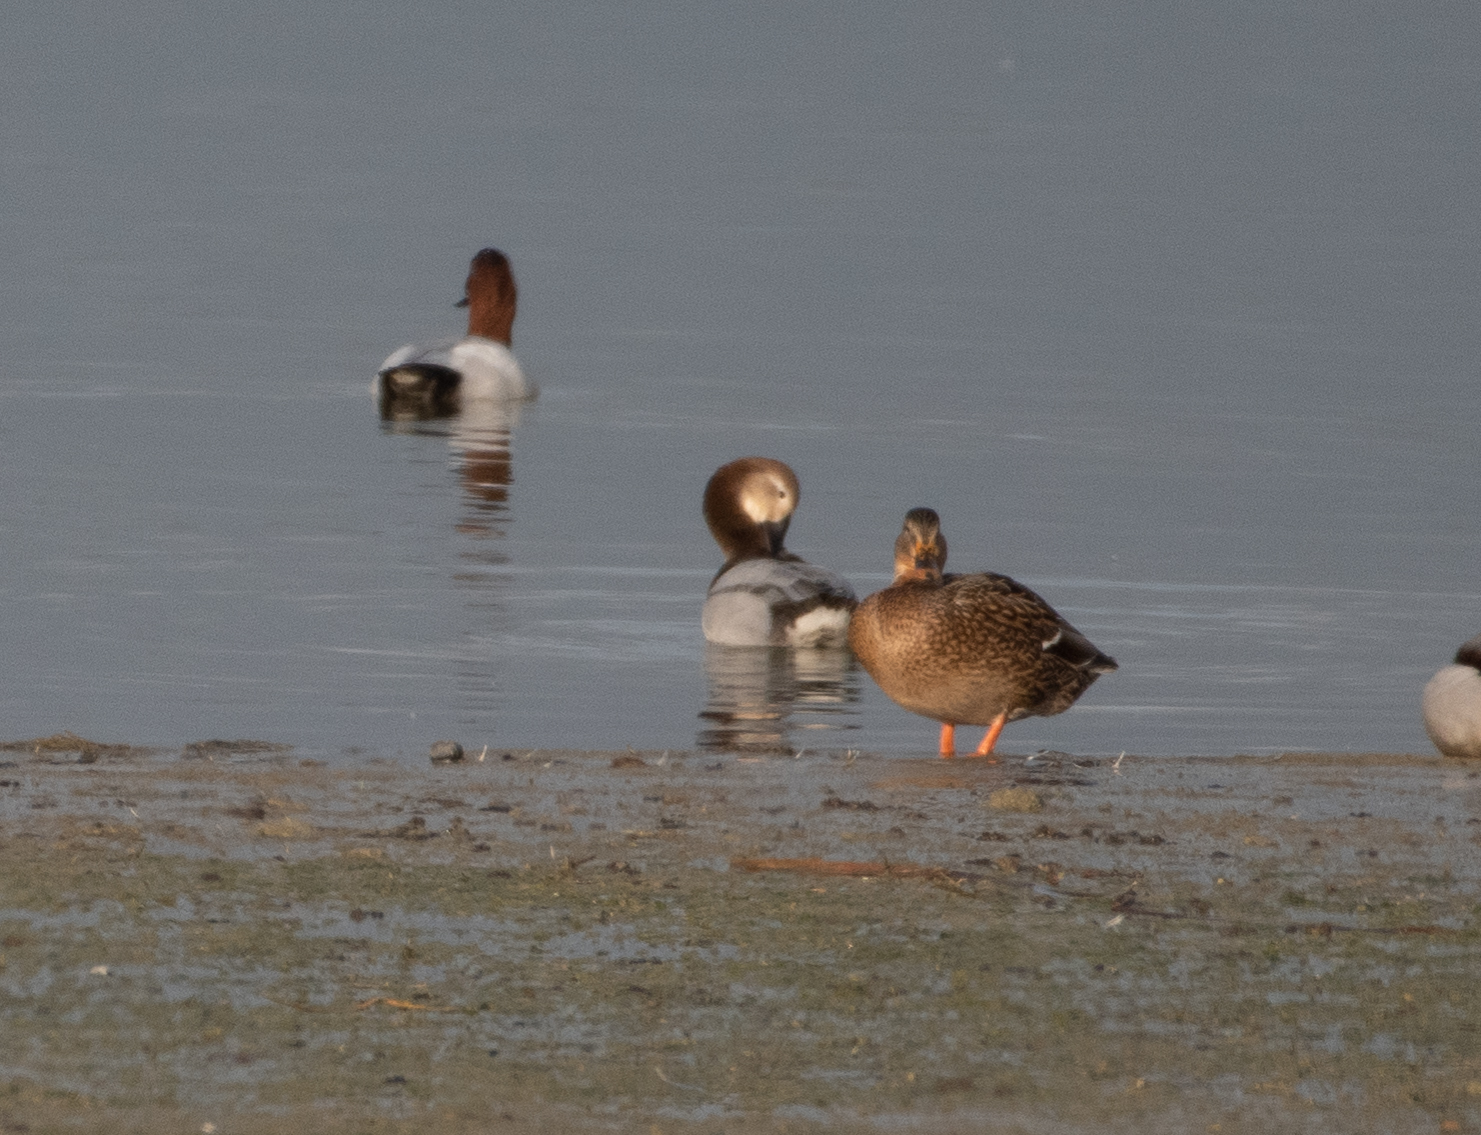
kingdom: Animalia
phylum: Chordata
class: Aves
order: Anseriformes
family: Anatidae
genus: Anas
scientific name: Anas platyrhynchos
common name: Mallard
